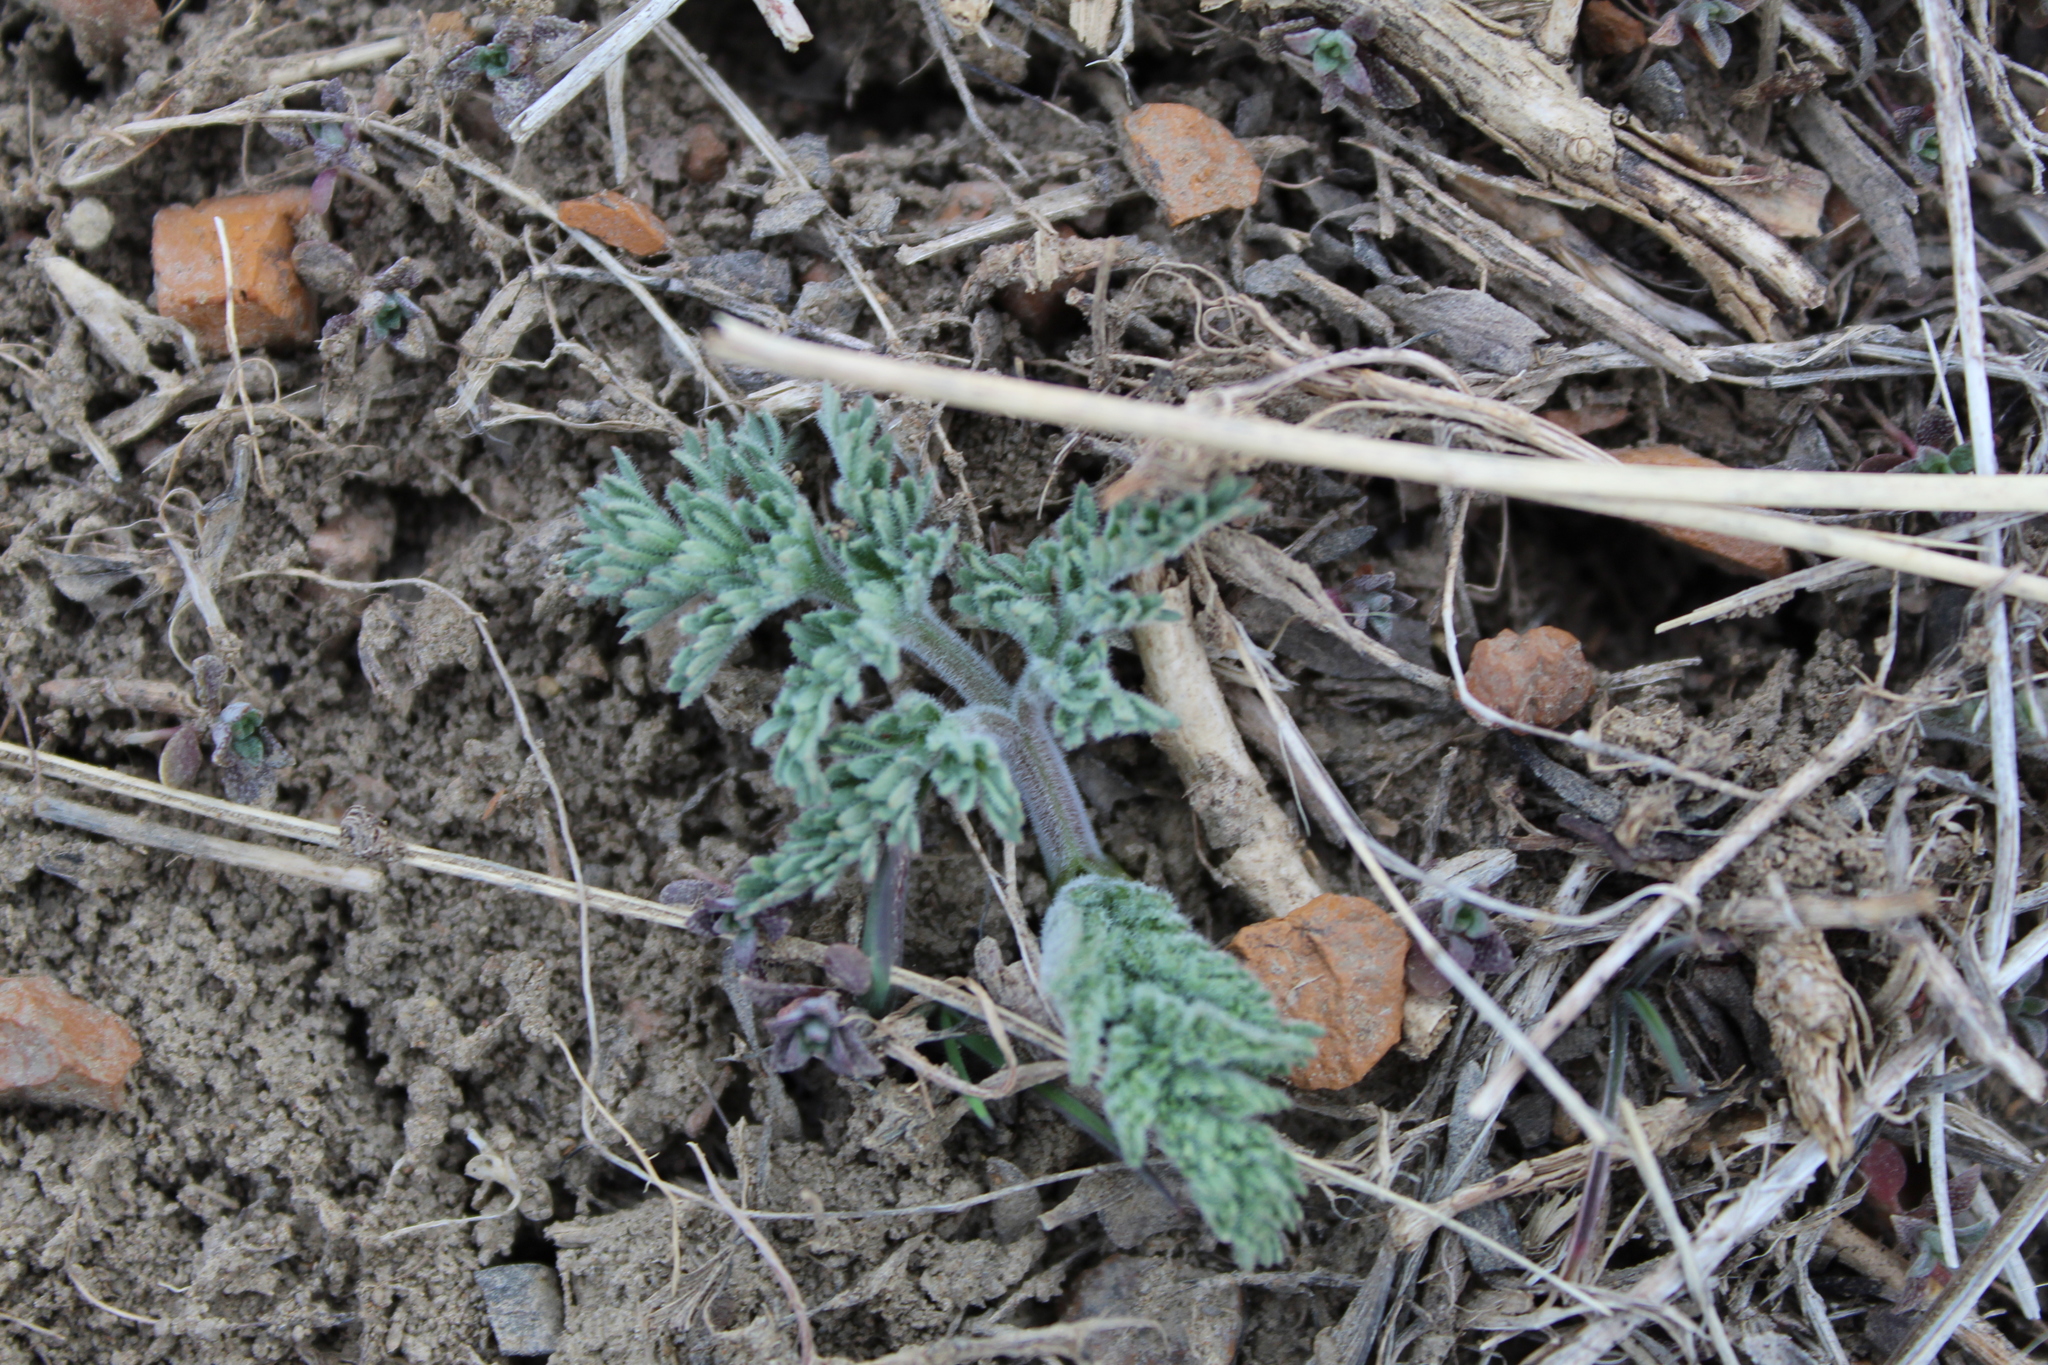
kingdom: Plantae
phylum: Tracheophyta
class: Magnoliopsida
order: Apiales
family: Apiaceae
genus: Lomatium
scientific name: Lomatium foeniculaceum
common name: Desert-parsley
